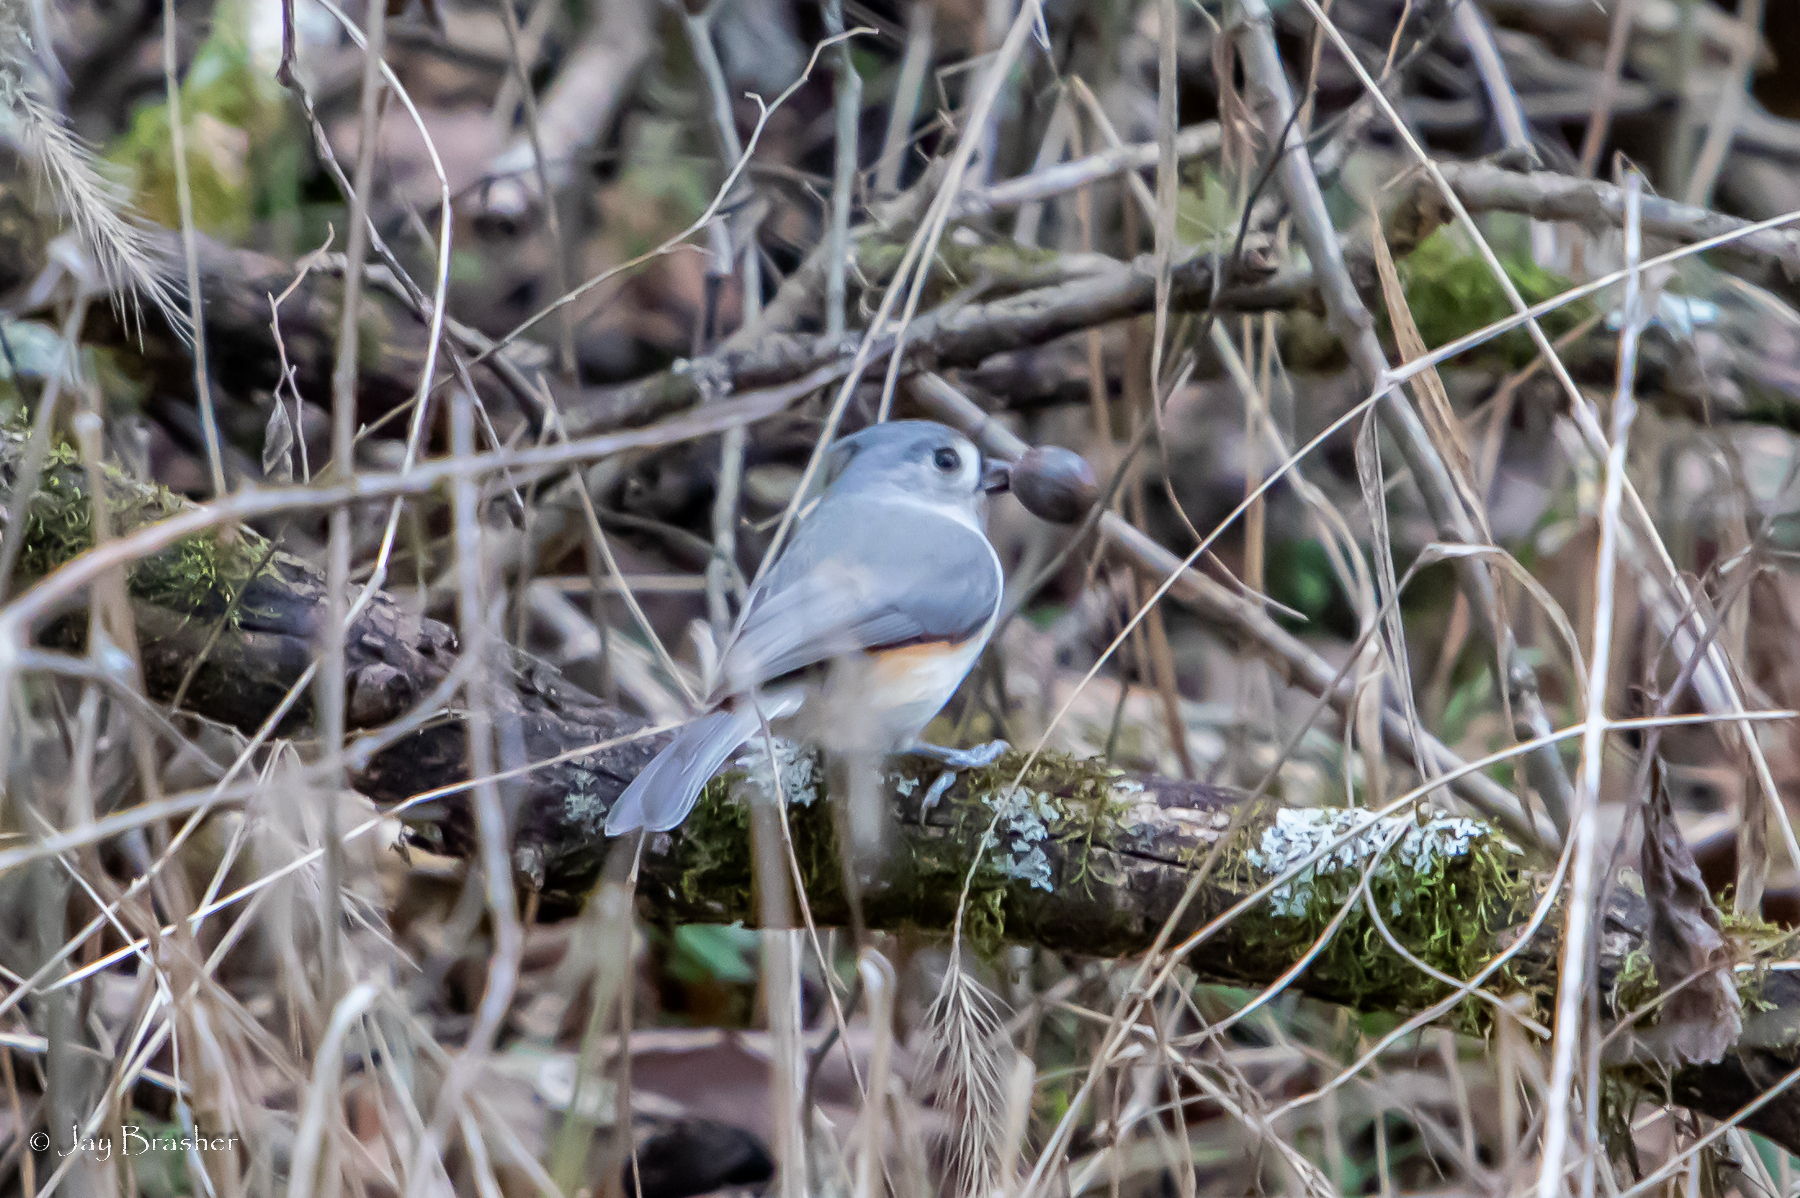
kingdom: Animalia
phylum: Chordata
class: Aves
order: Passeriformes
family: Paridae
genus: Baeolophus
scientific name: Baeolophus bicolor
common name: Tufted titmouse
